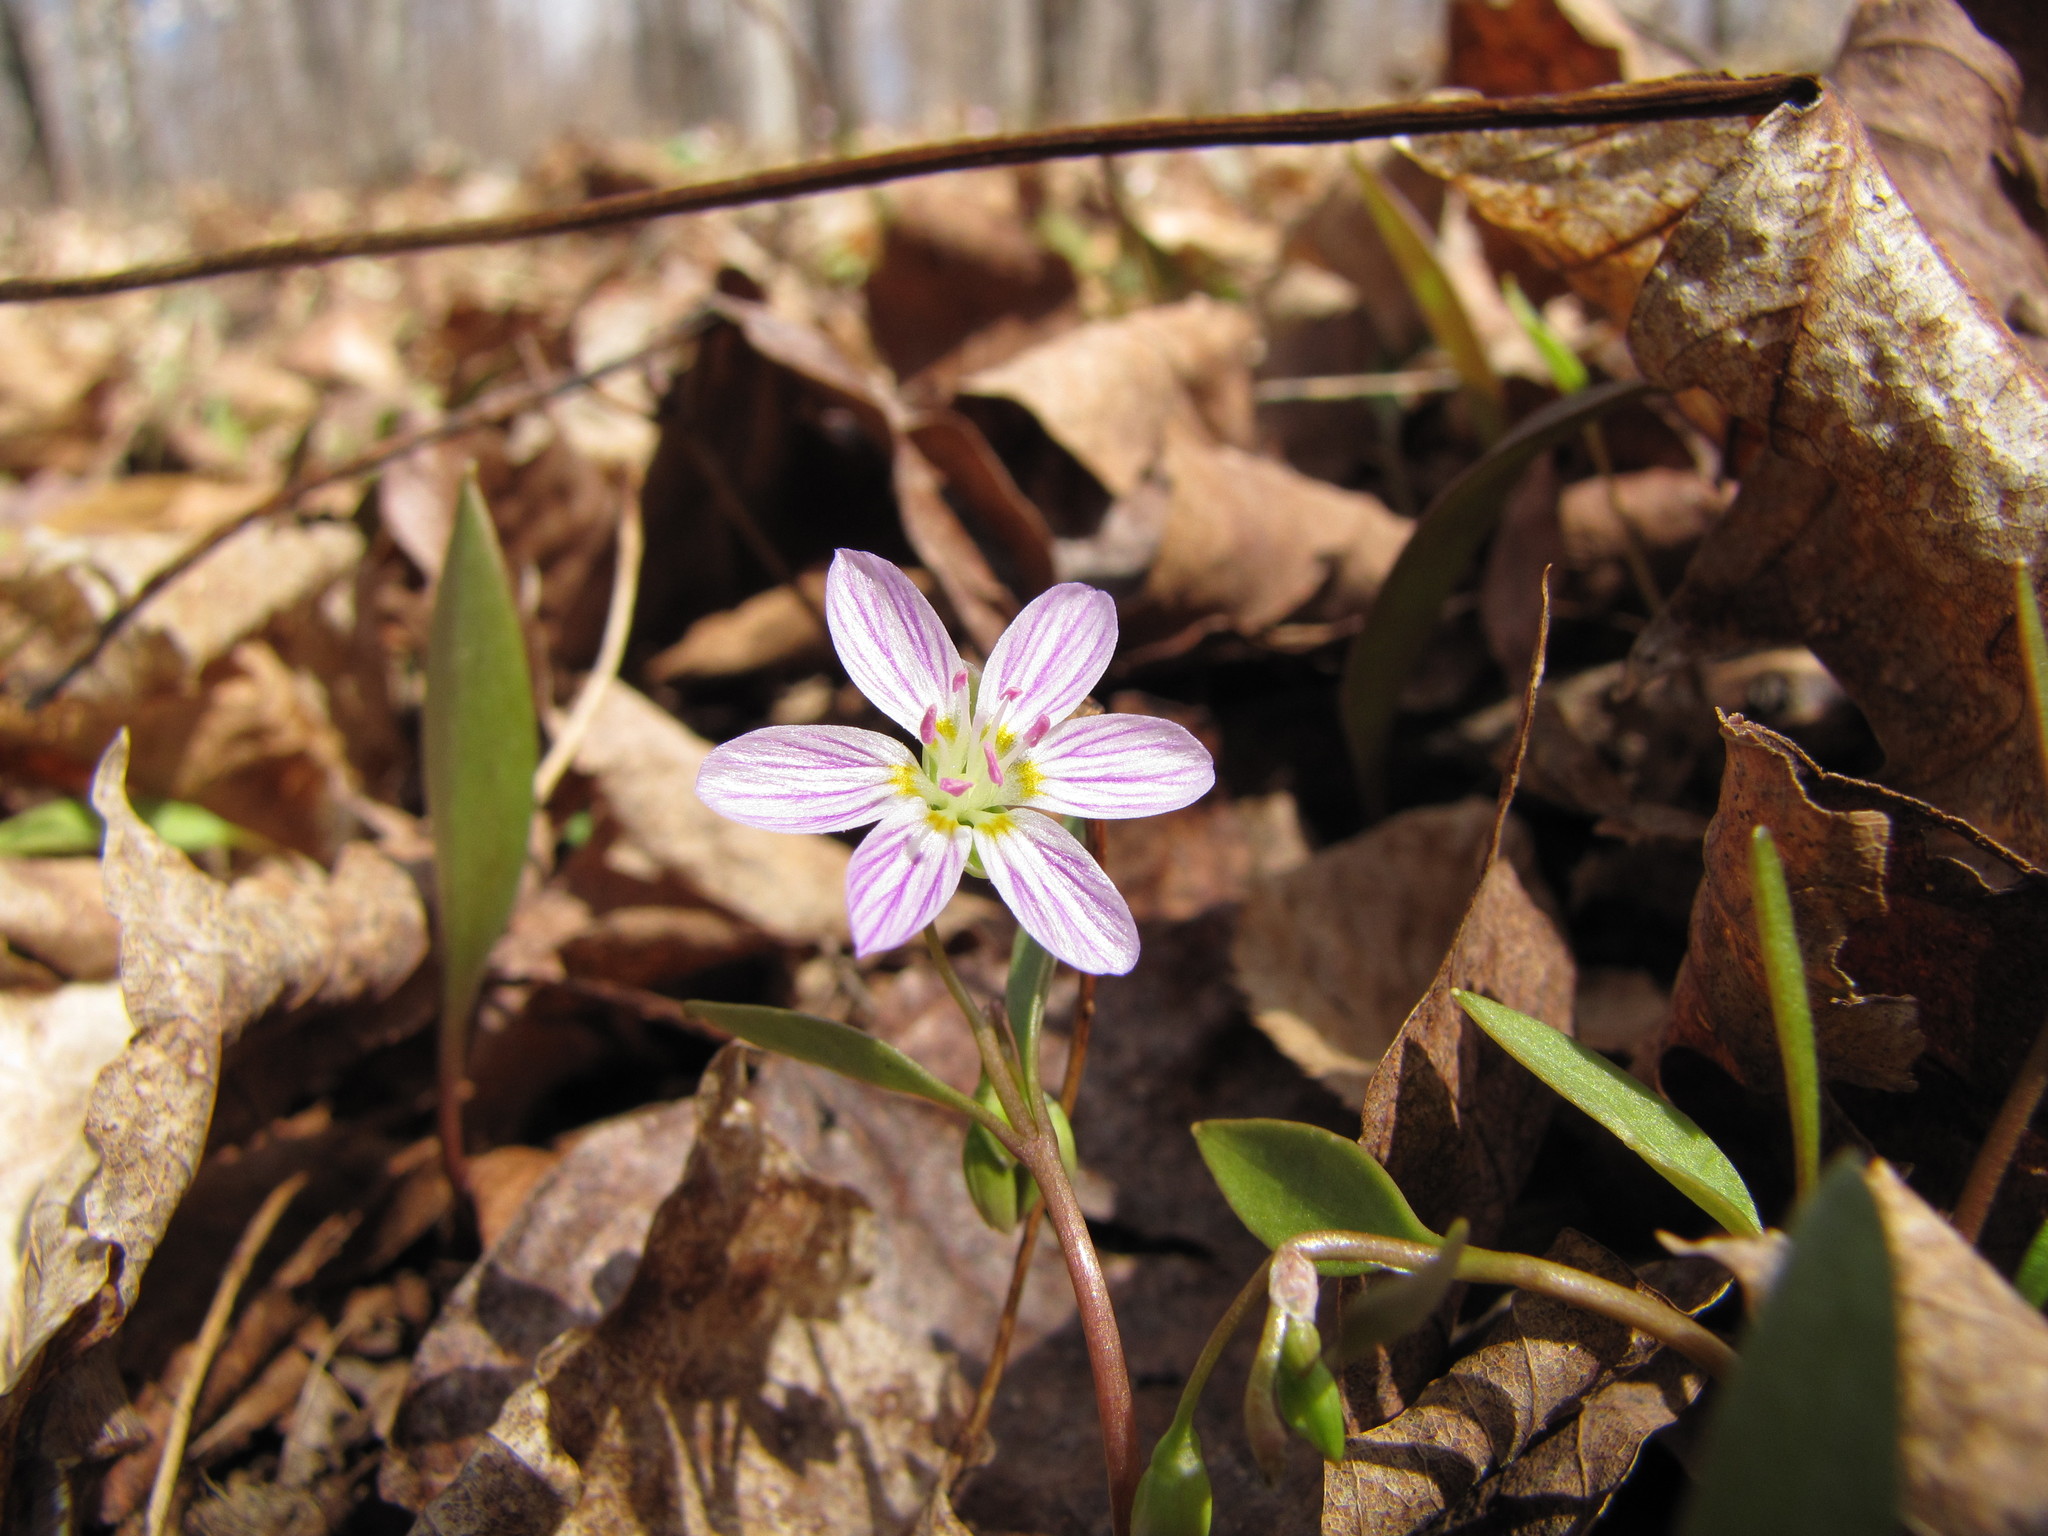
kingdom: Plantae
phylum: Tracheophyta
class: Magnoliopsida
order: Caryophyllales
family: Montiaceae
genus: Claytonia
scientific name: Claytonia caroliniana
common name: Carolina spring beauty
